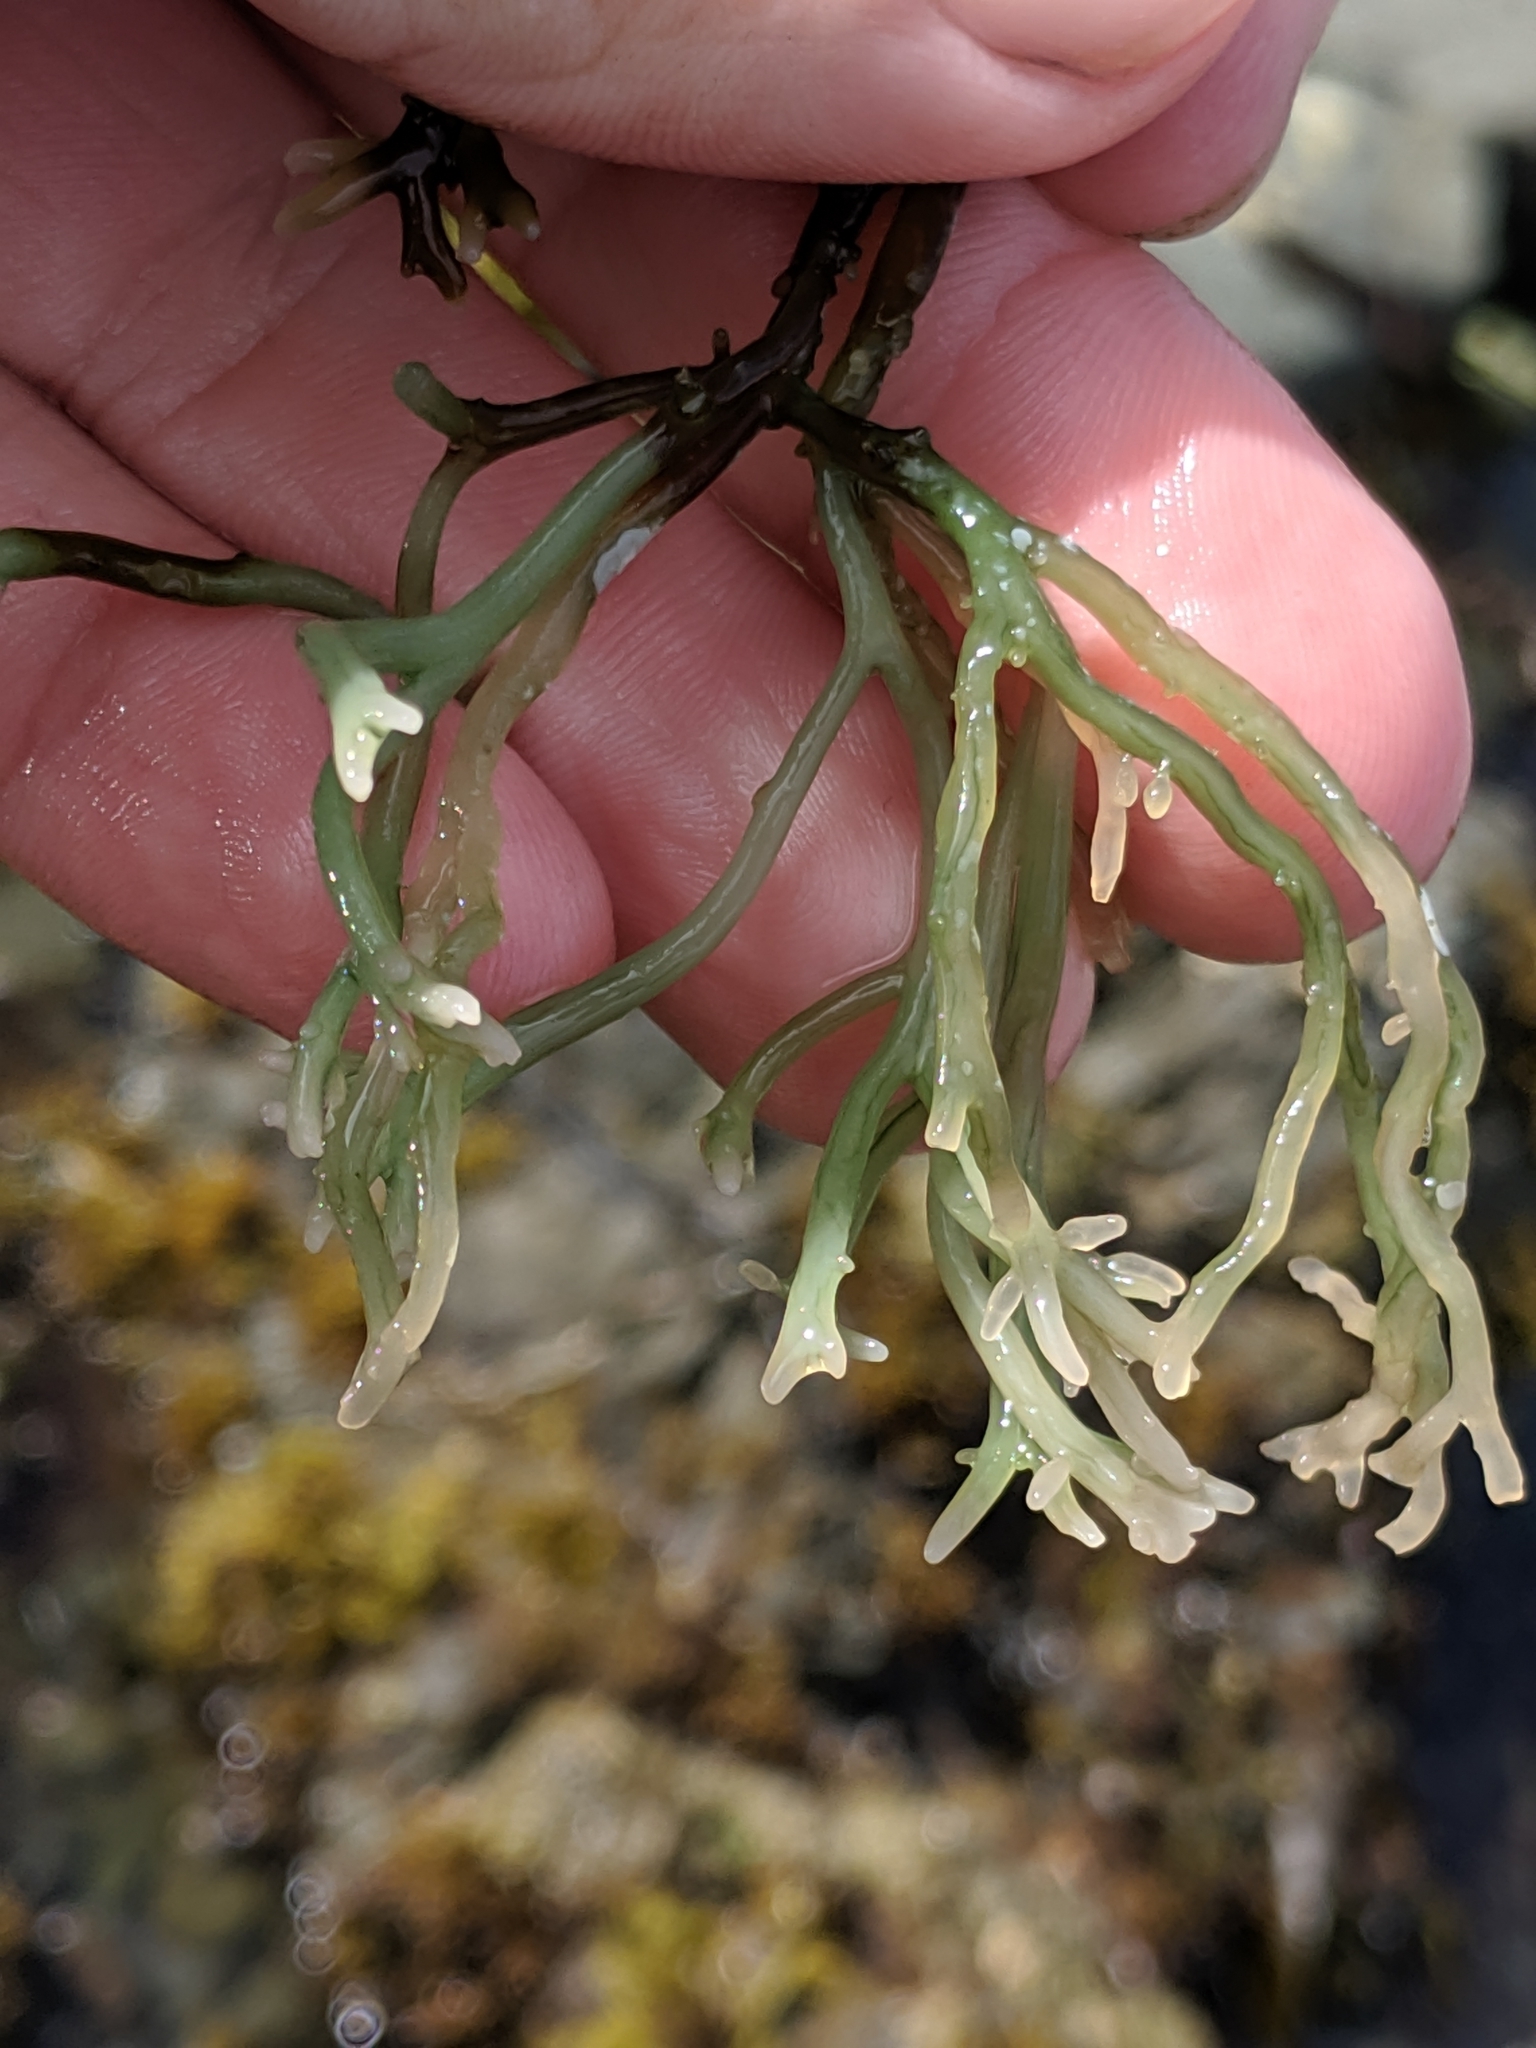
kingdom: Plantae
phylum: Rhodophyta
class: Florideophyceae
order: Rhodymeniales
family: Champiaceae
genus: Neogastroclonium
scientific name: Neogastroclonium subarticulatum
